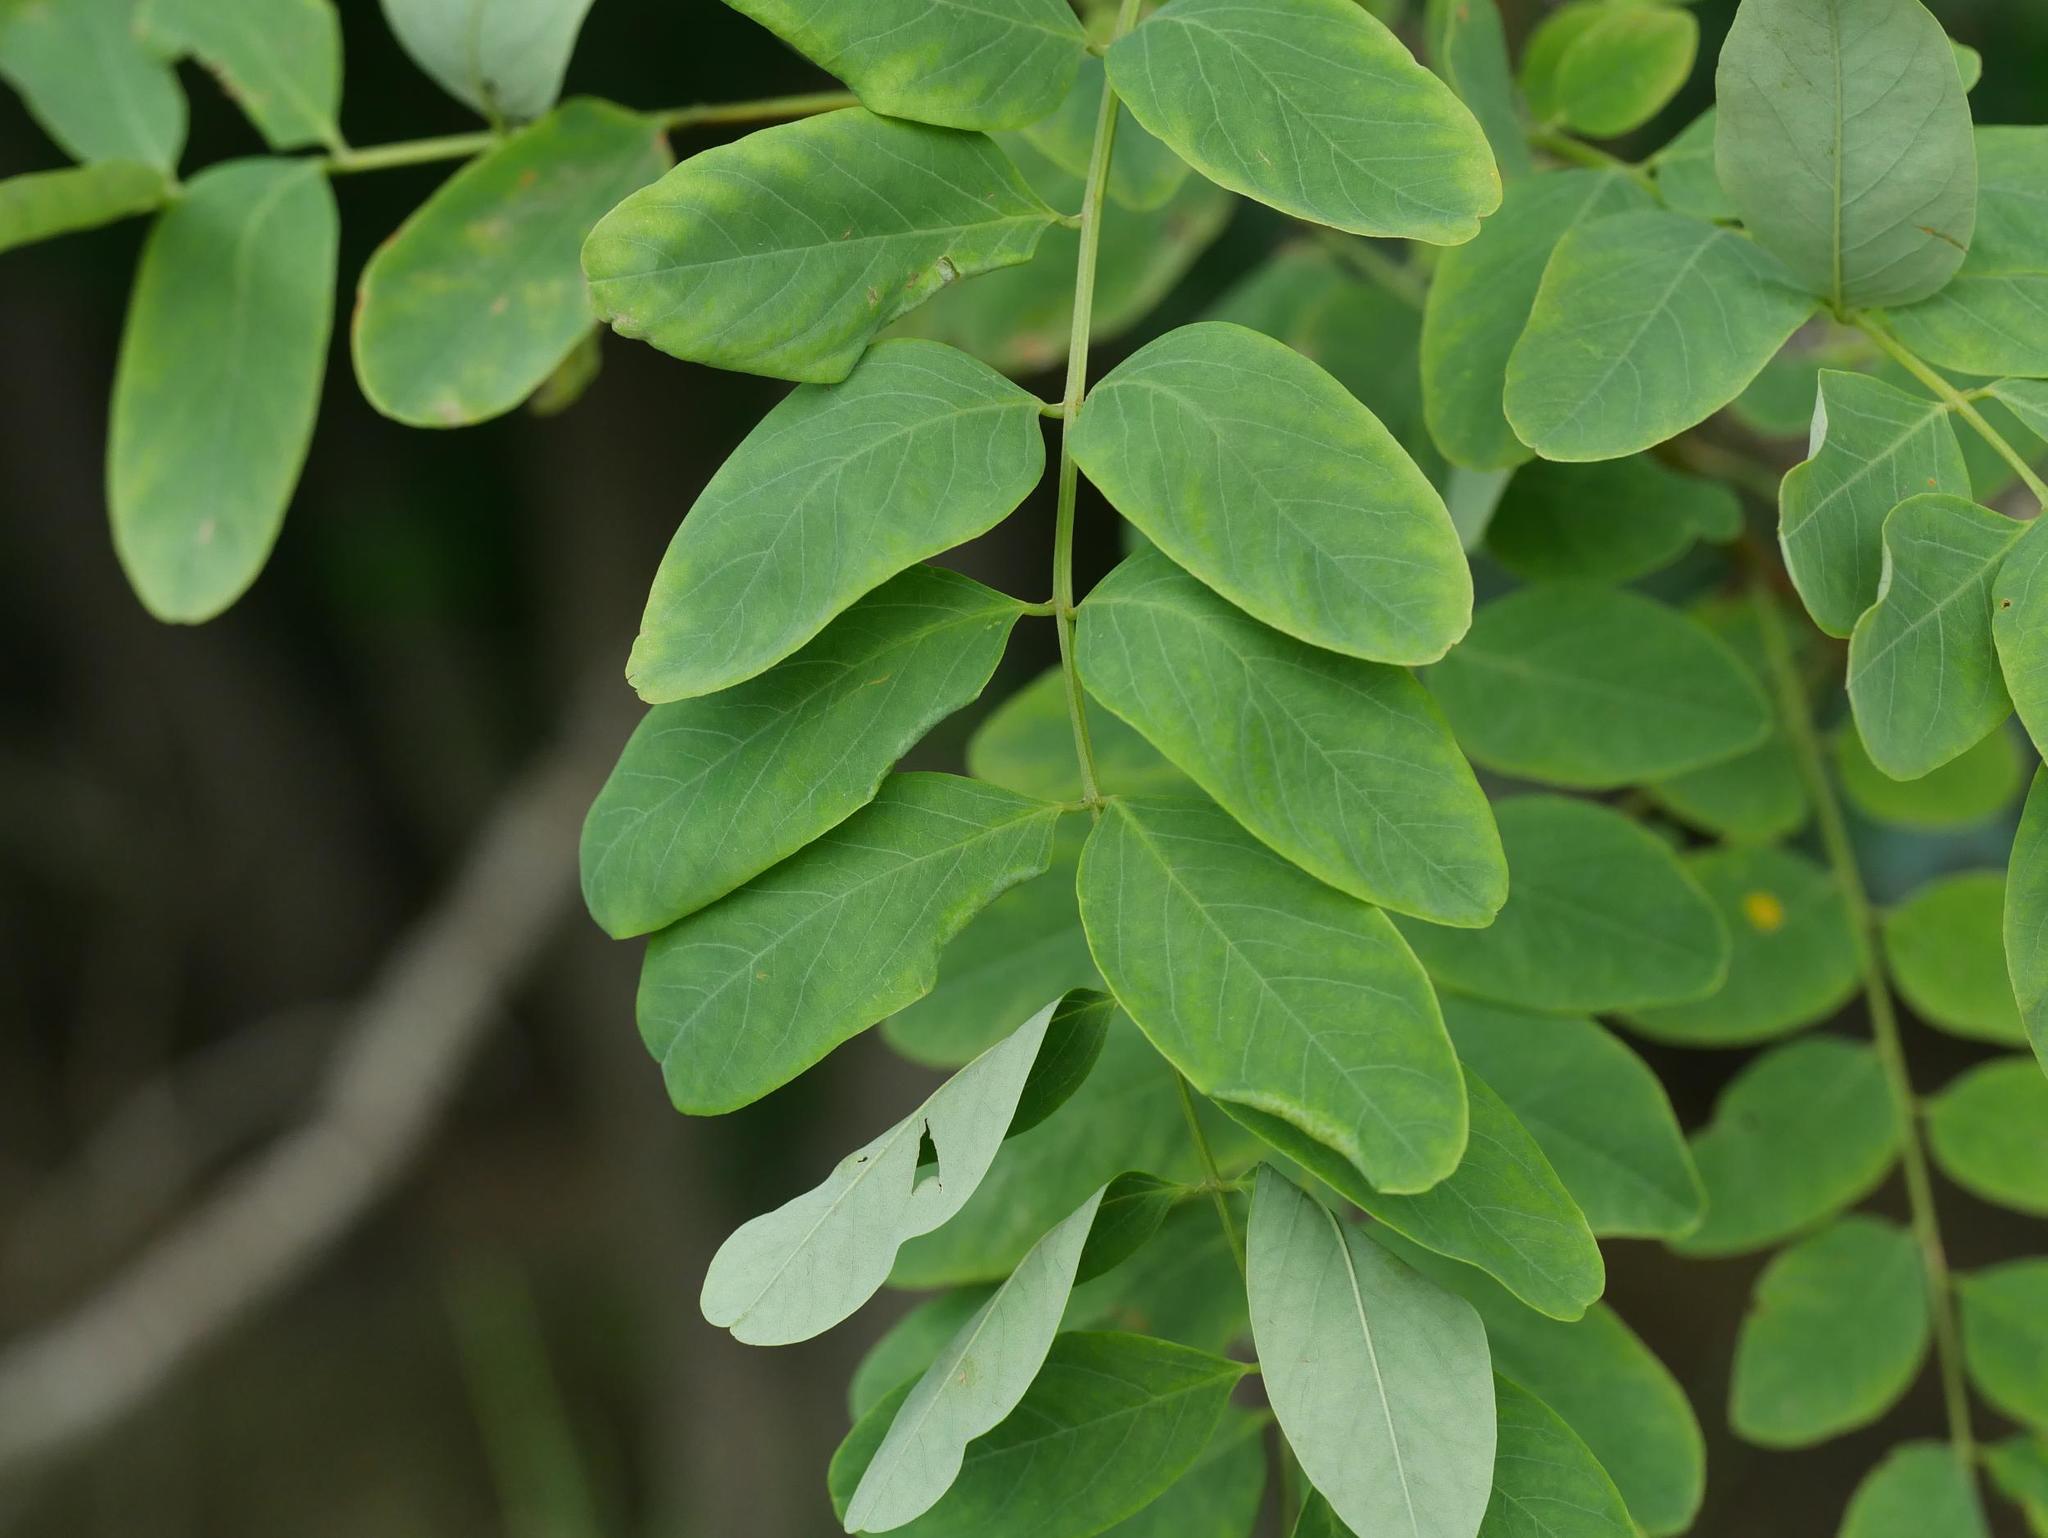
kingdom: Plantae
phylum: Tracheophyta
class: Magnoliopsida
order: Fabales
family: Fabaceae
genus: Robinia
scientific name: Robinia pseudoacacia
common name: Black locust
